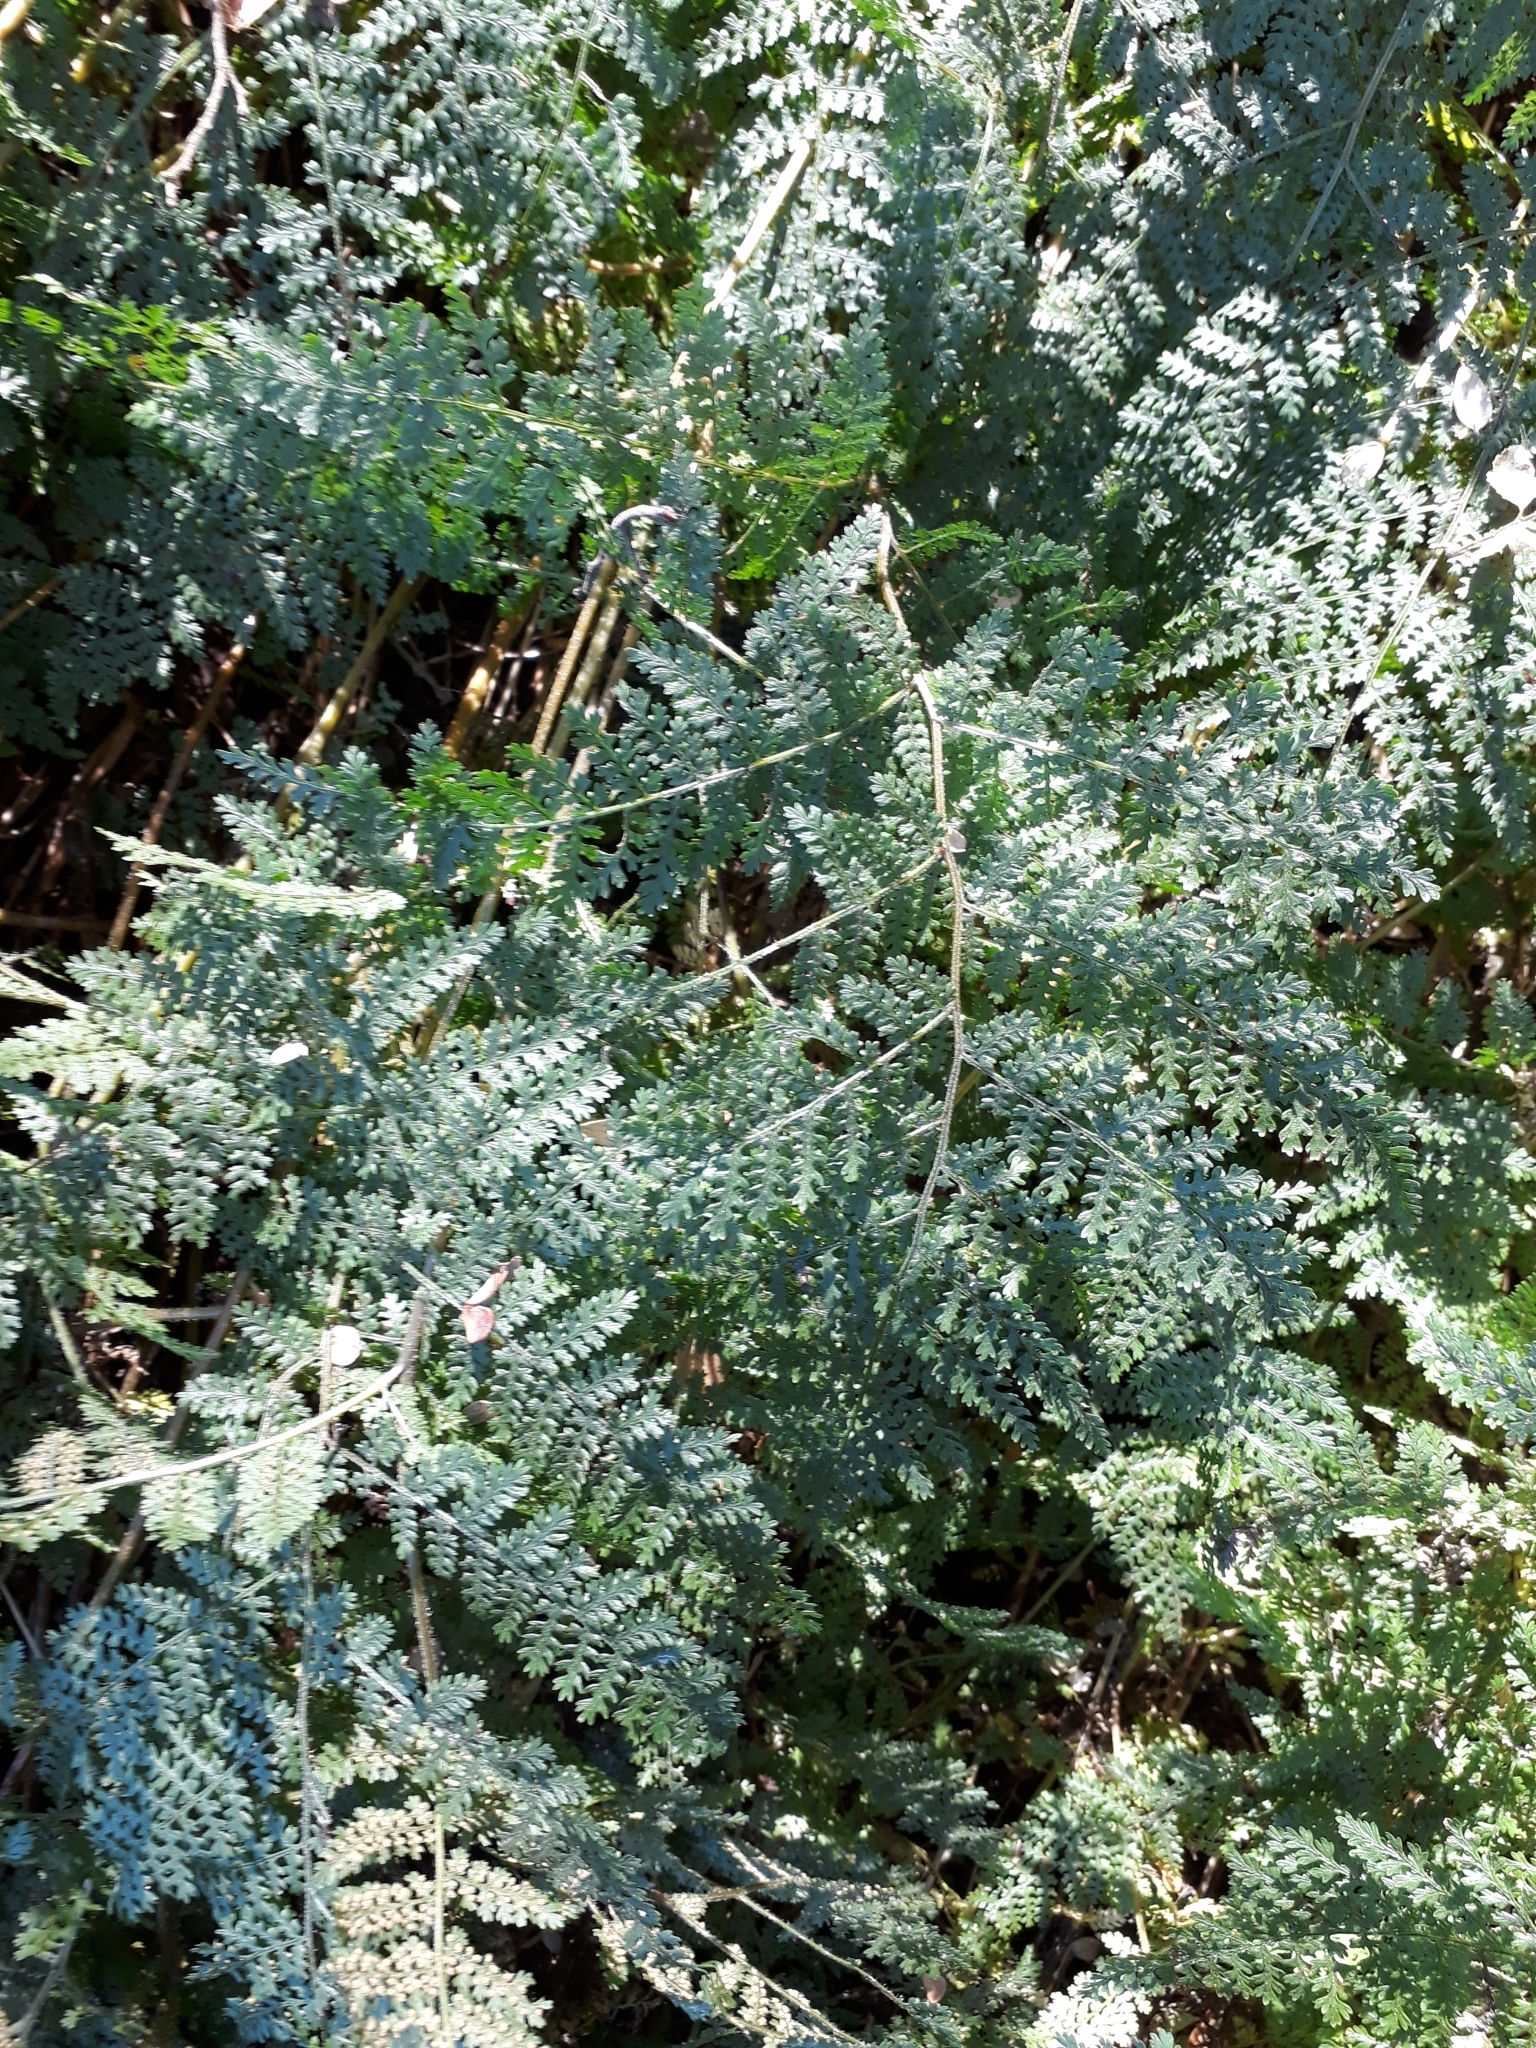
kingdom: Plantae
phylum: Tracheophyta
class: Polypodiopsida
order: Polypodiales
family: Dennstaedtiaceae
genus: Hypolepis
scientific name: Hypolepis millefolium
